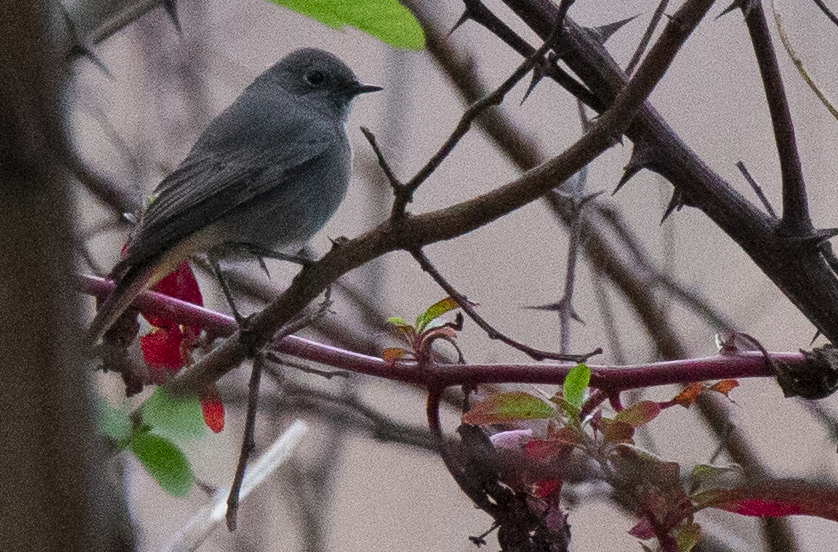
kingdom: Animalia
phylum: Chordata
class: Aves
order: Passeriformes
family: Muscicapidae
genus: Phoenicurus
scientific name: Phoenicurus ochruros
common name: Black redstart
